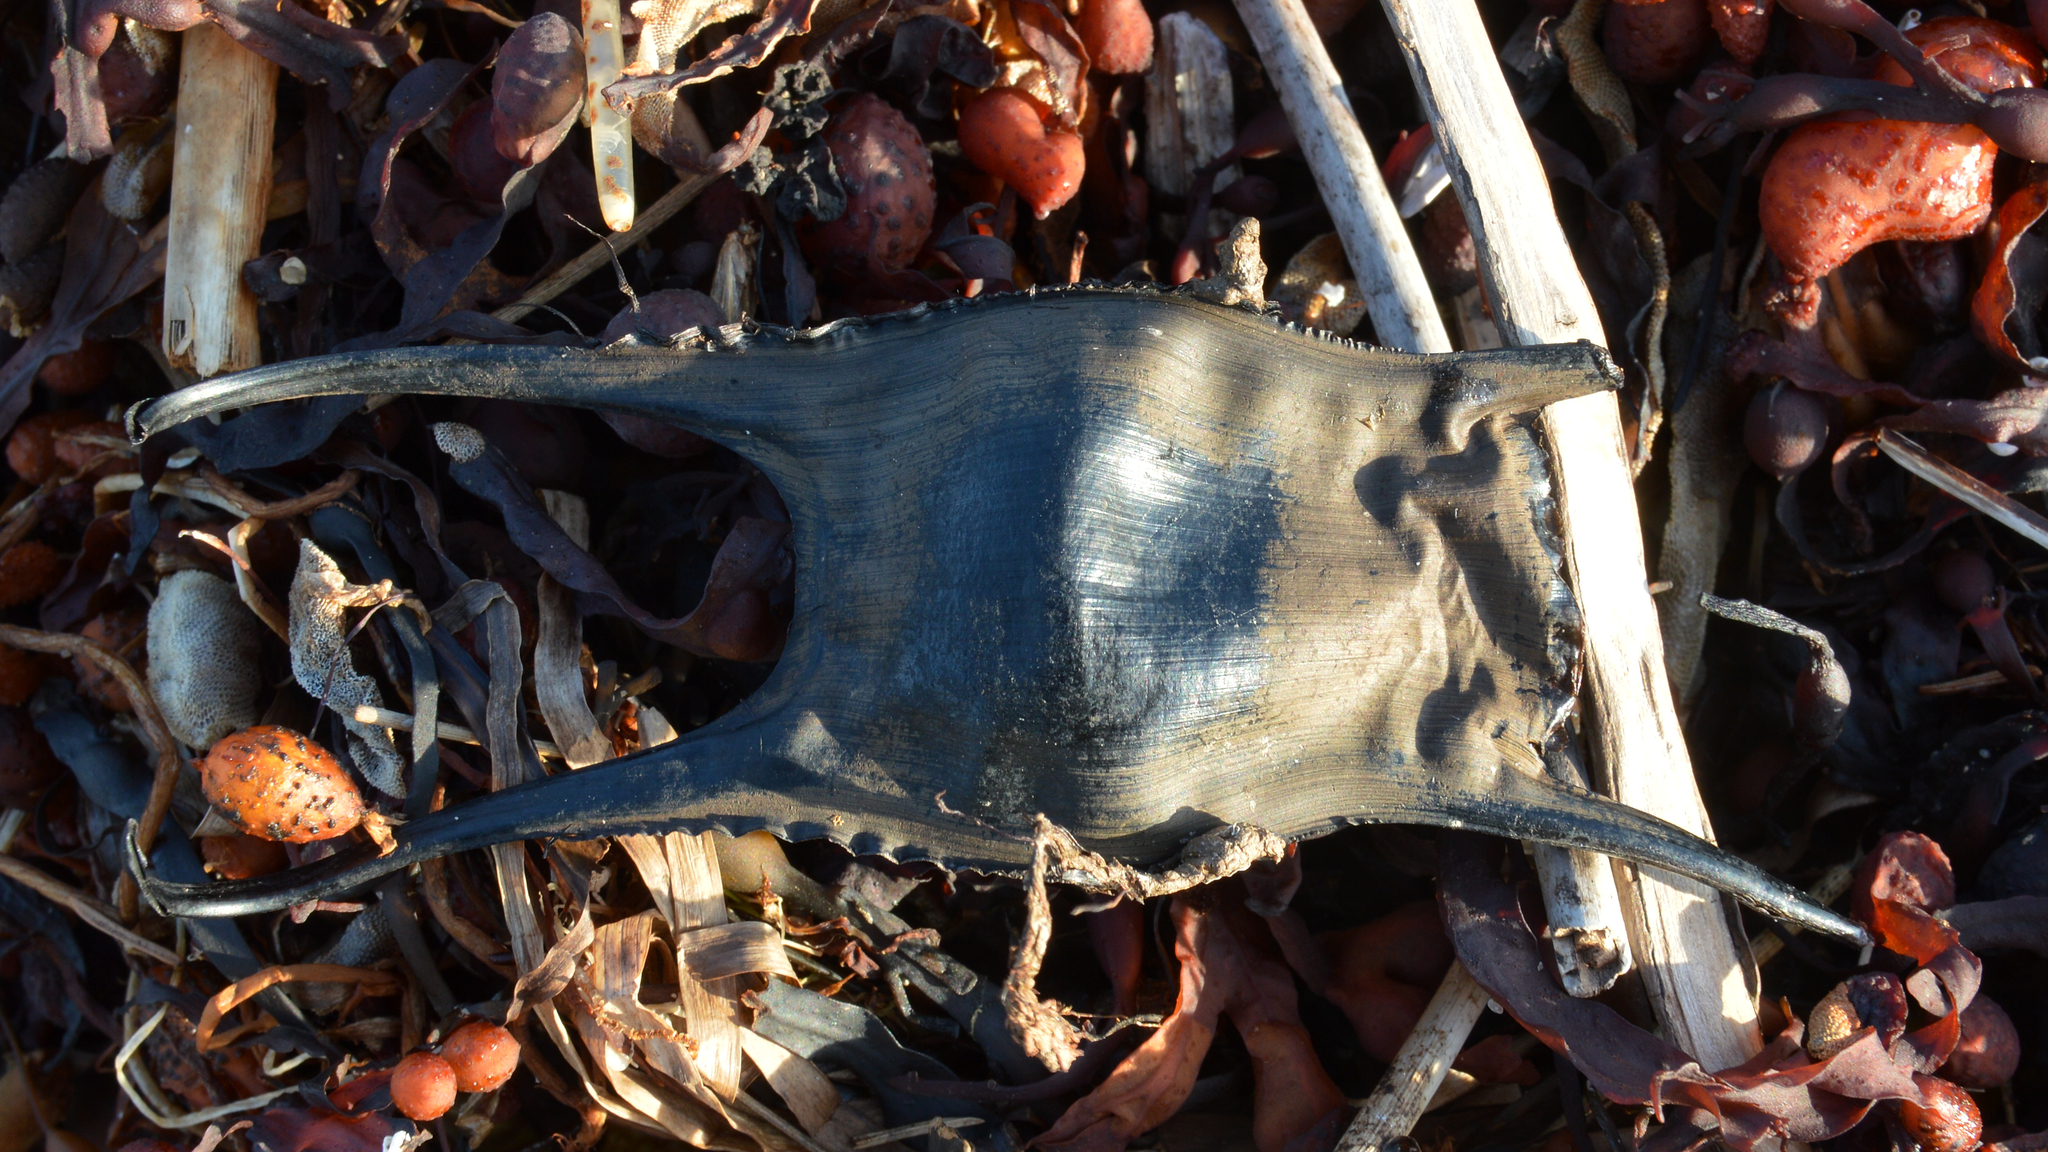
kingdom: Animalia
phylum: Chordata
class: Elasmobranchii
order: Rajiformes
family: Rajidae
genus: Leucoraja
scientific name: Leucoraja ocellata
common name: Winter skate
